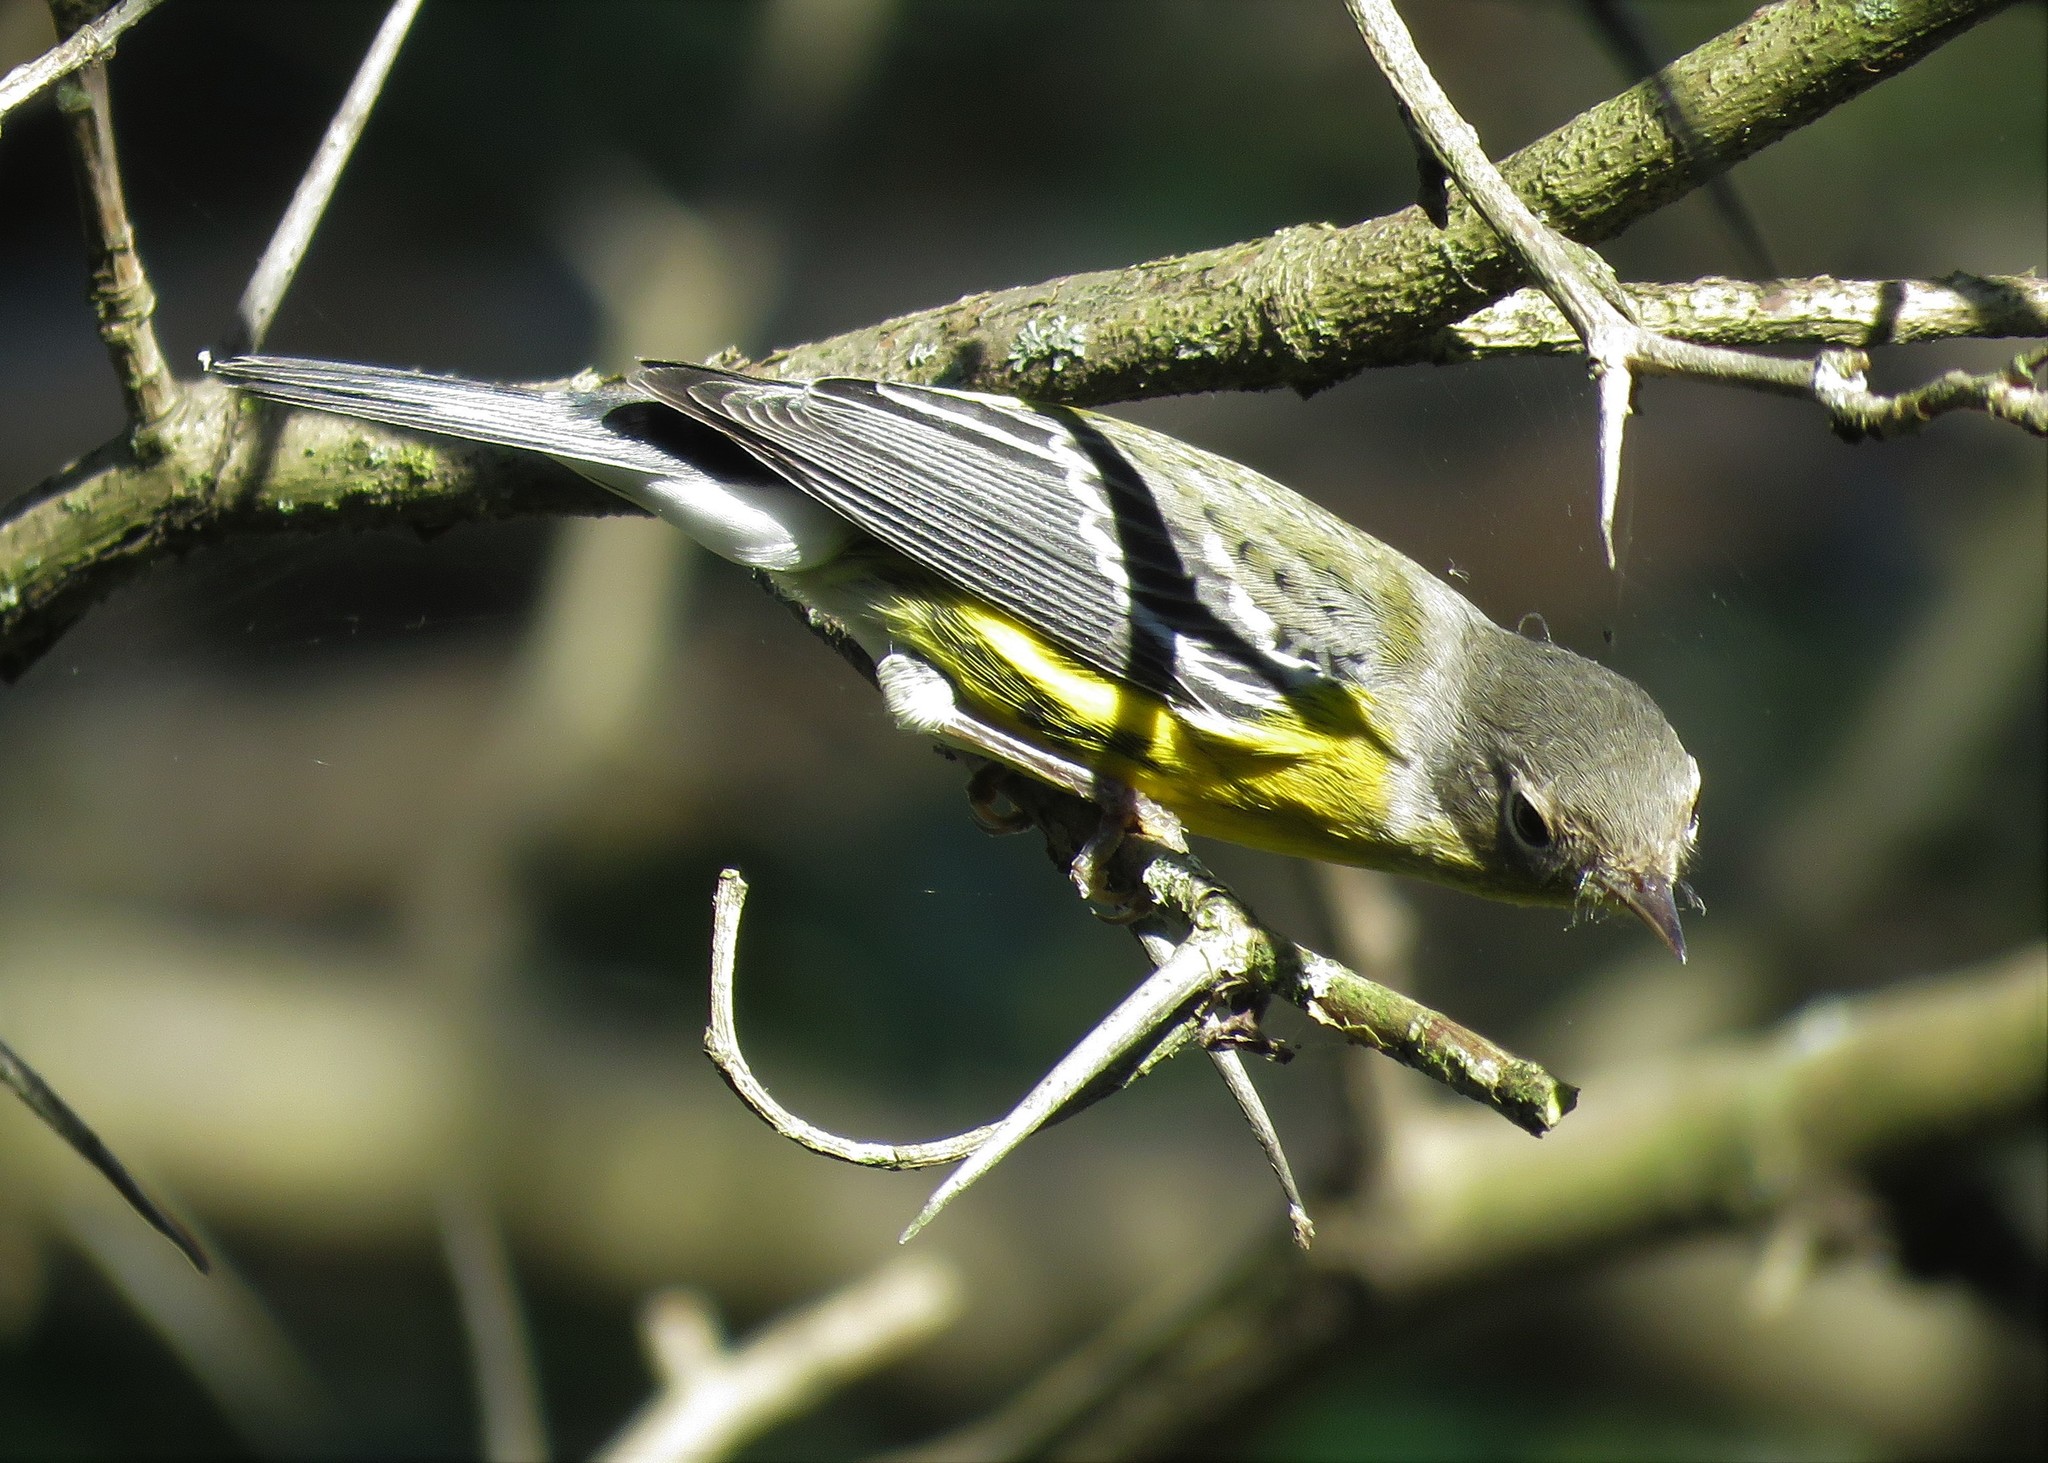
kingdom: Animalia
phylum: Chordata
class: Aves
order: Passeriformes
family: Parulidae
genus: Setophaga
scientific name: Setophaga magnolia
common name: Magnolia warbler
